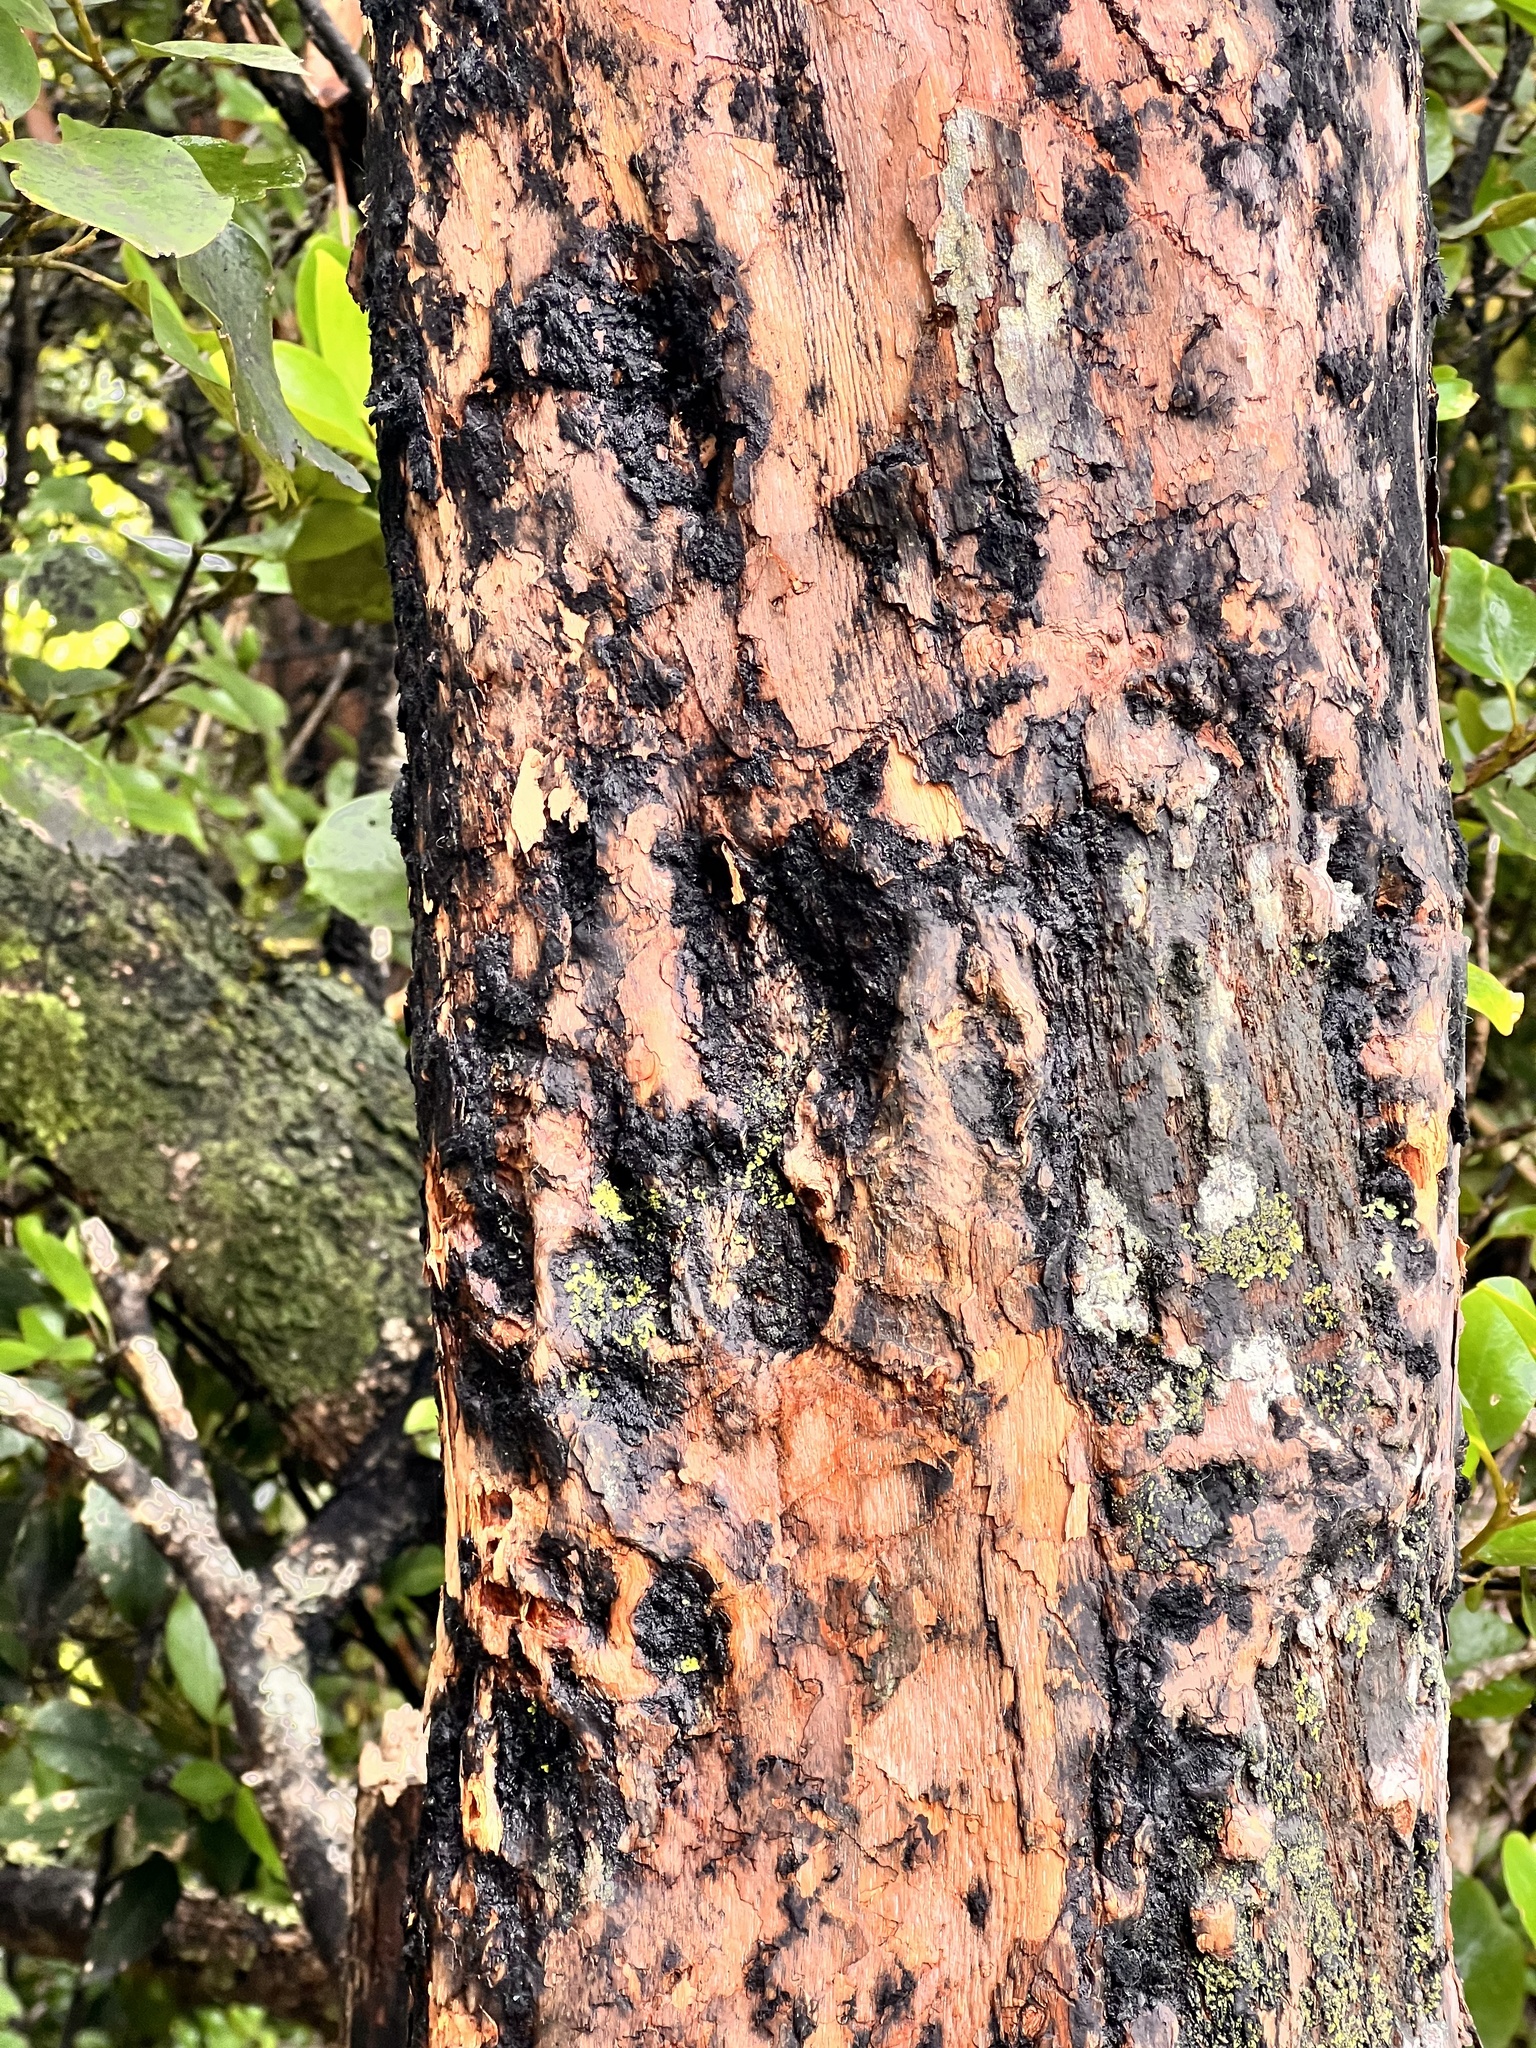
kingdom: Plantae
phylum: Tracheophyta
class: Magnoliopsida
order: Ericales
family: Ericaceae
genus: Dracophyllum
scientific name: Dracophyllum traversii
